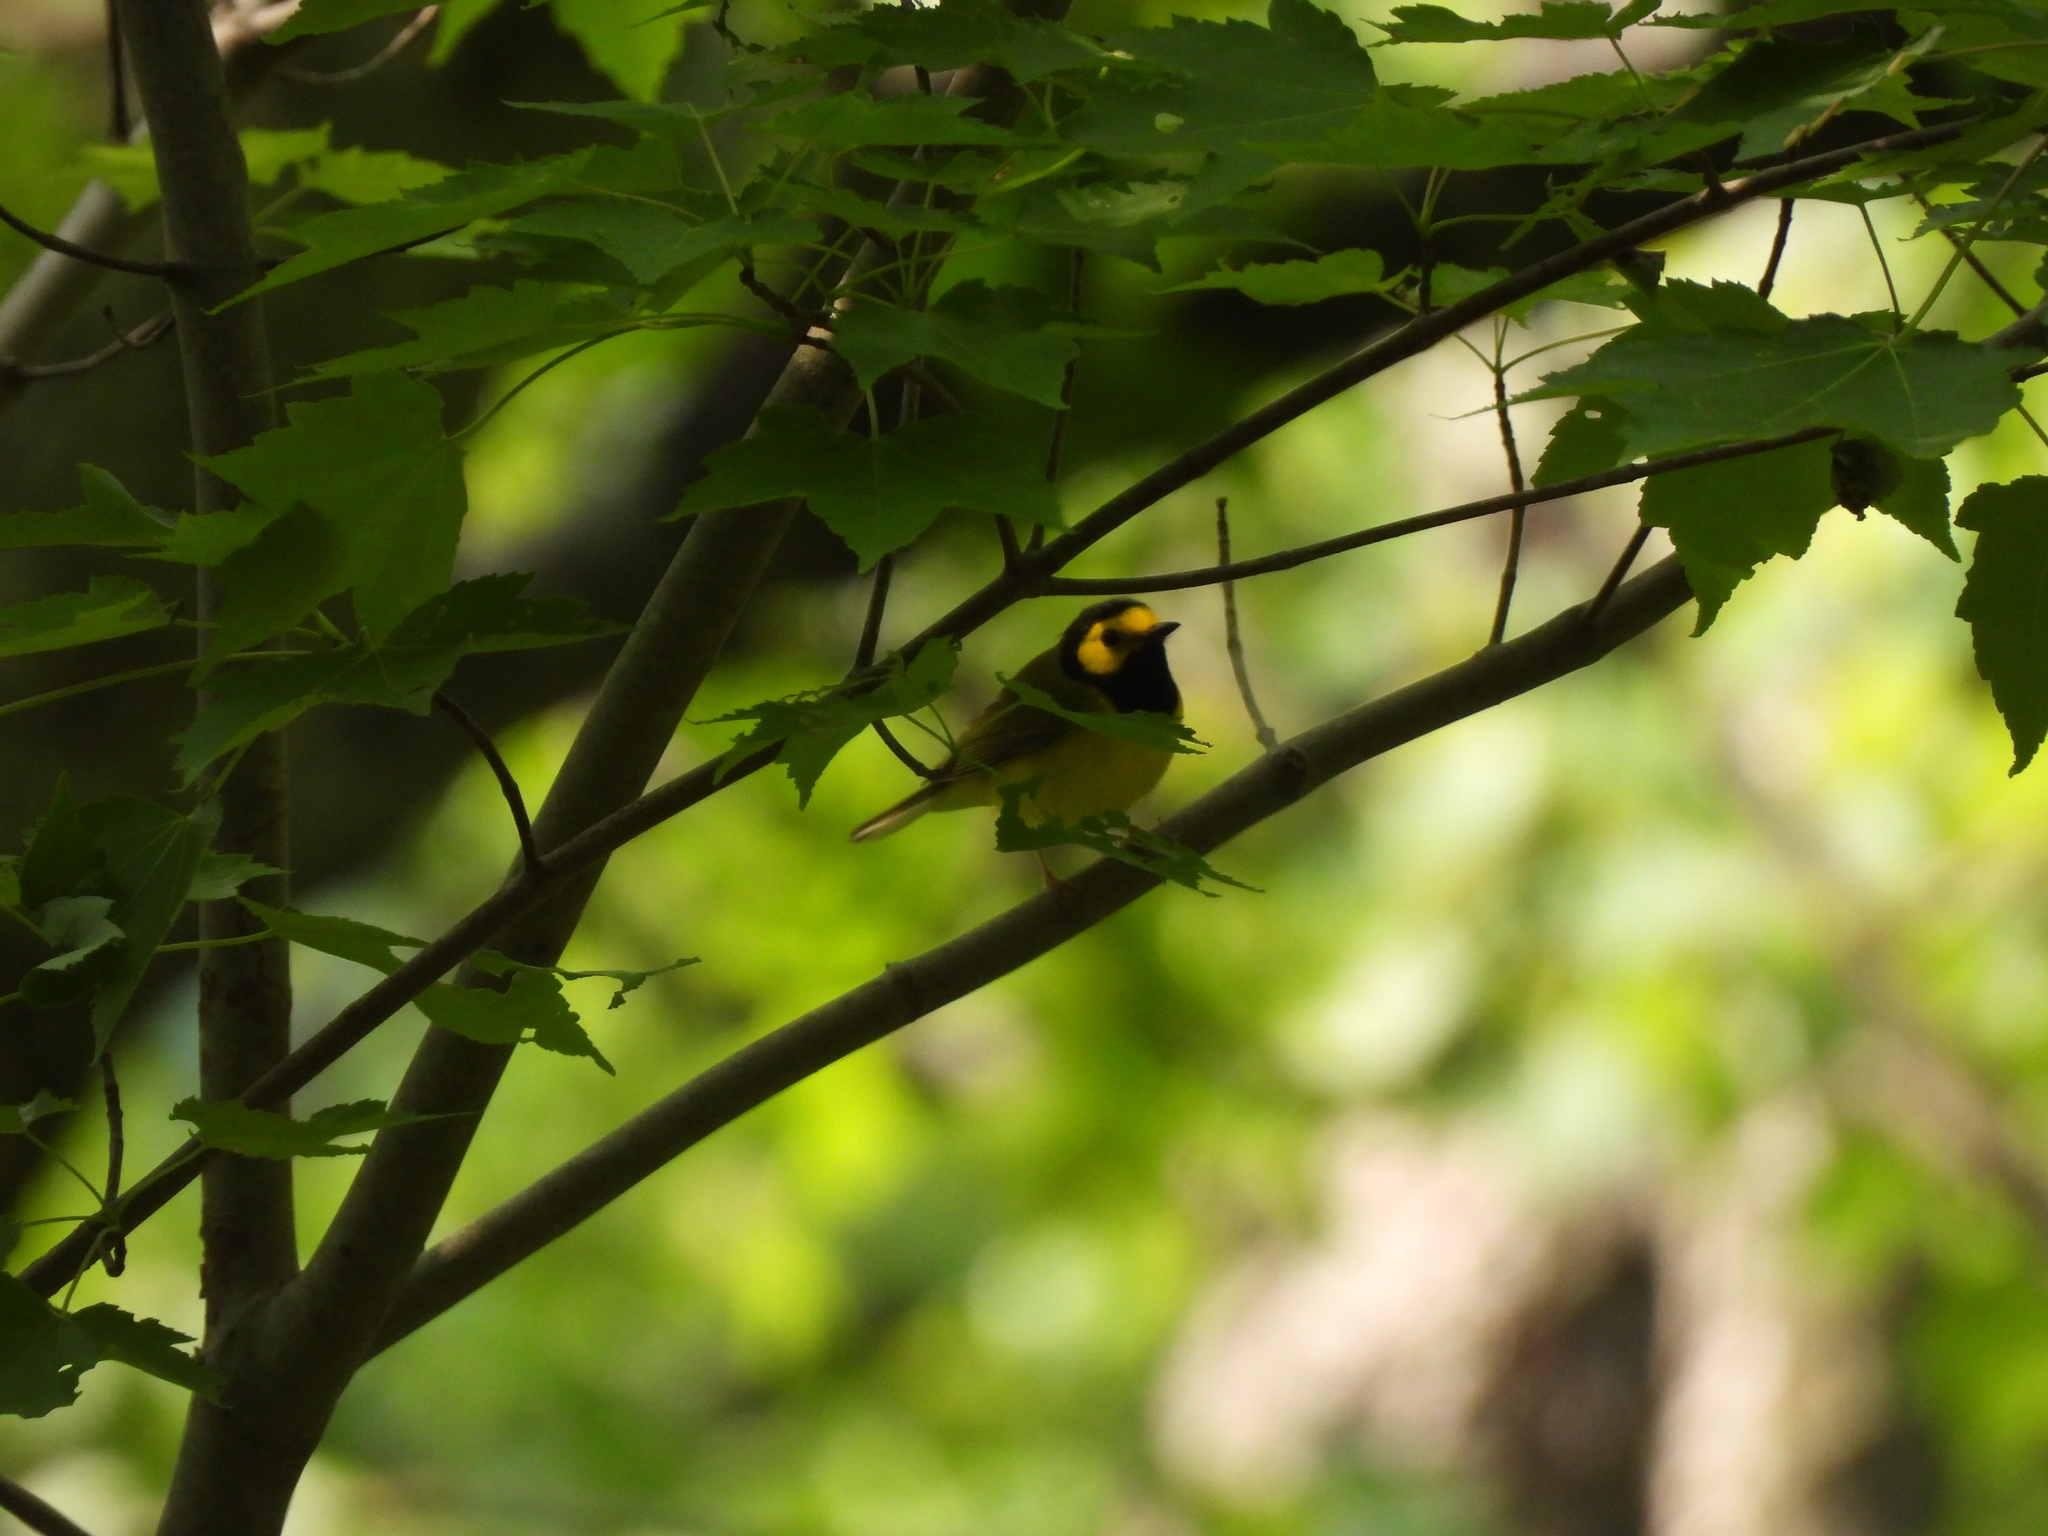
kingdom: Animalia
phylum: Chordata
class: Aves
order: Passeriformes
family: Parulidae
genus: Setophaga
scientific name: Setophaga citrina
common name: Hooded warbler
